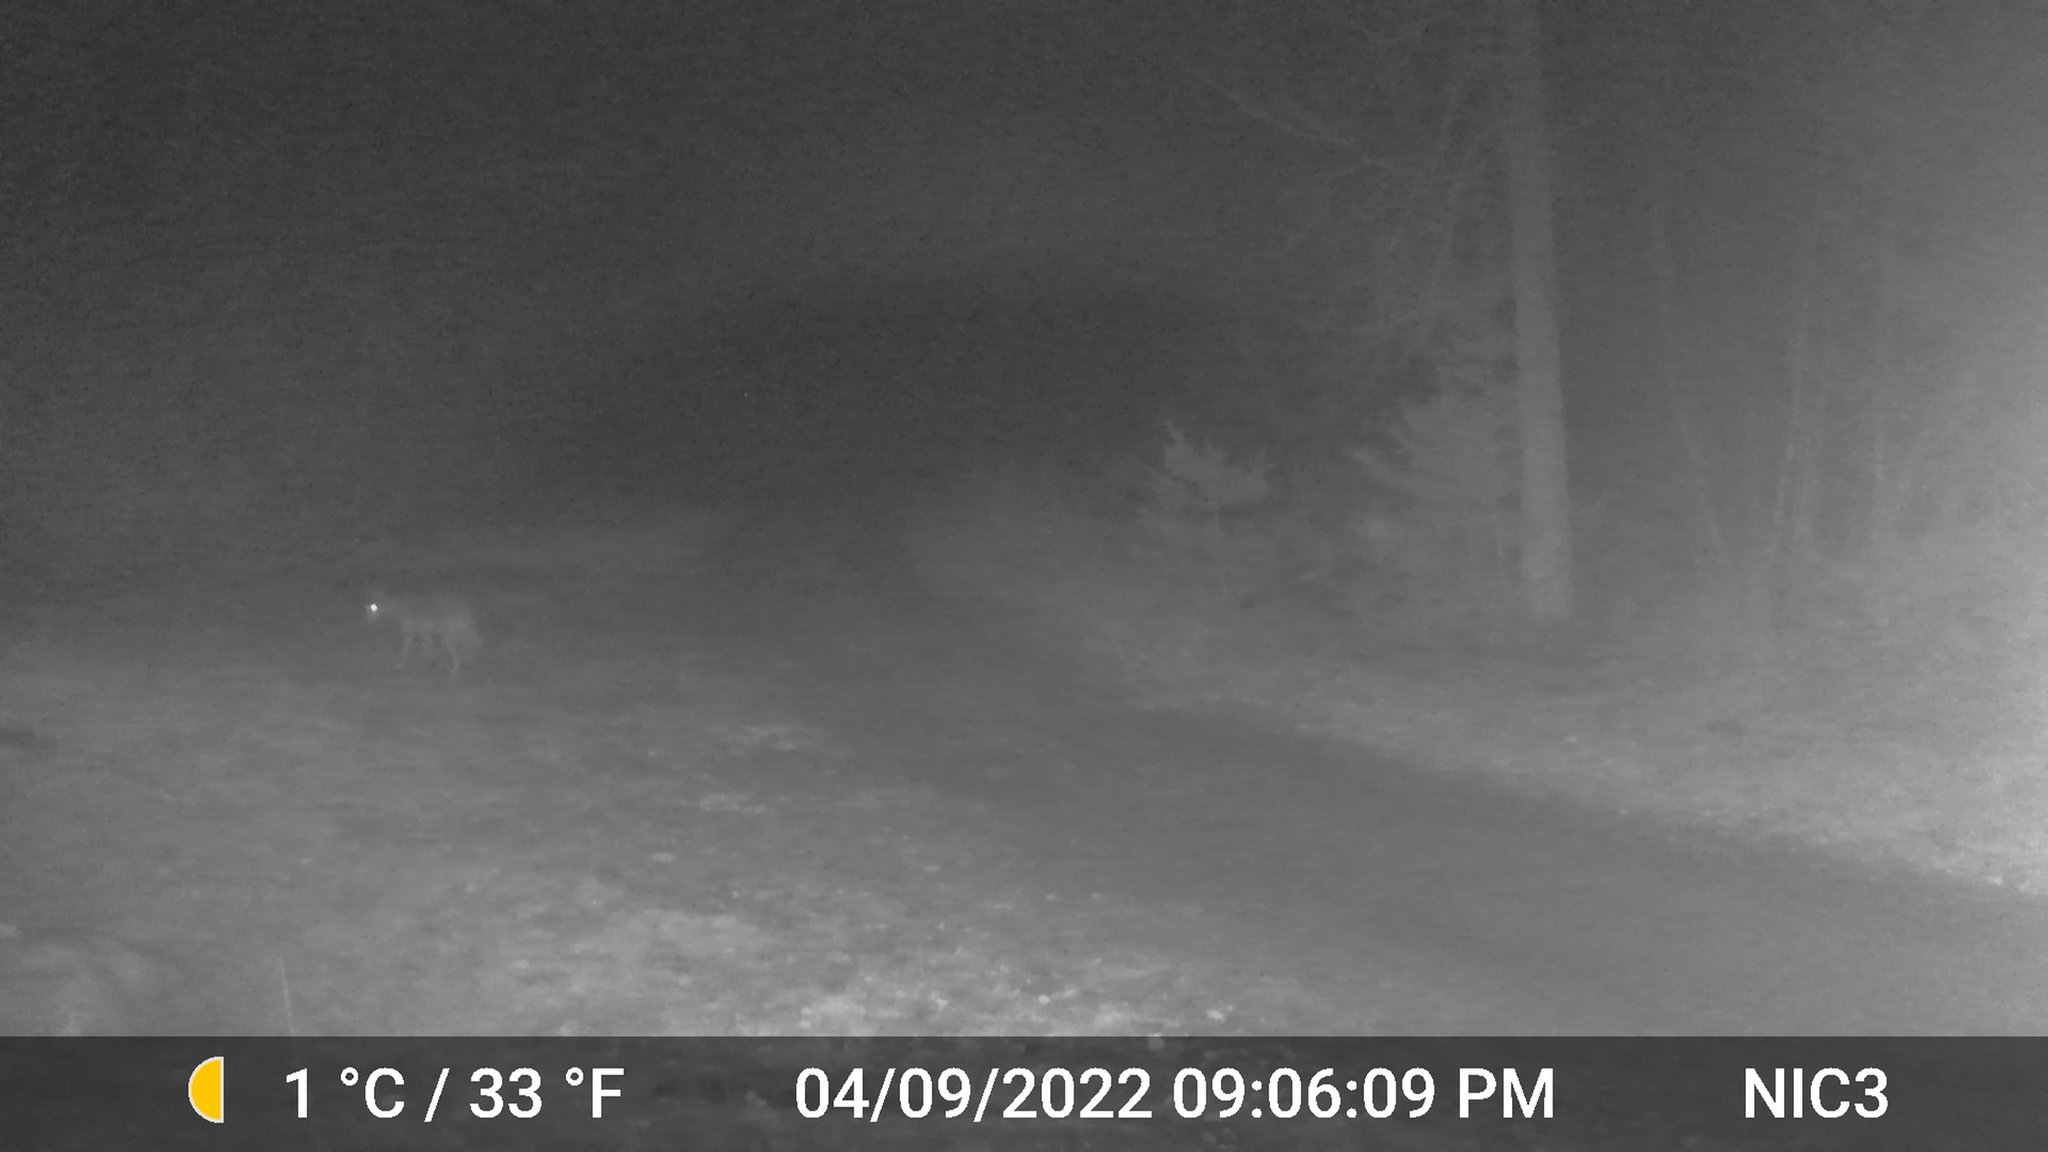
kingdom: Animalia
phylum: Chordata
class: Mammalia
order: Carnivora
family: Canidae
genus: Canis
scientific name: Canis latrans
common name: Coyote
